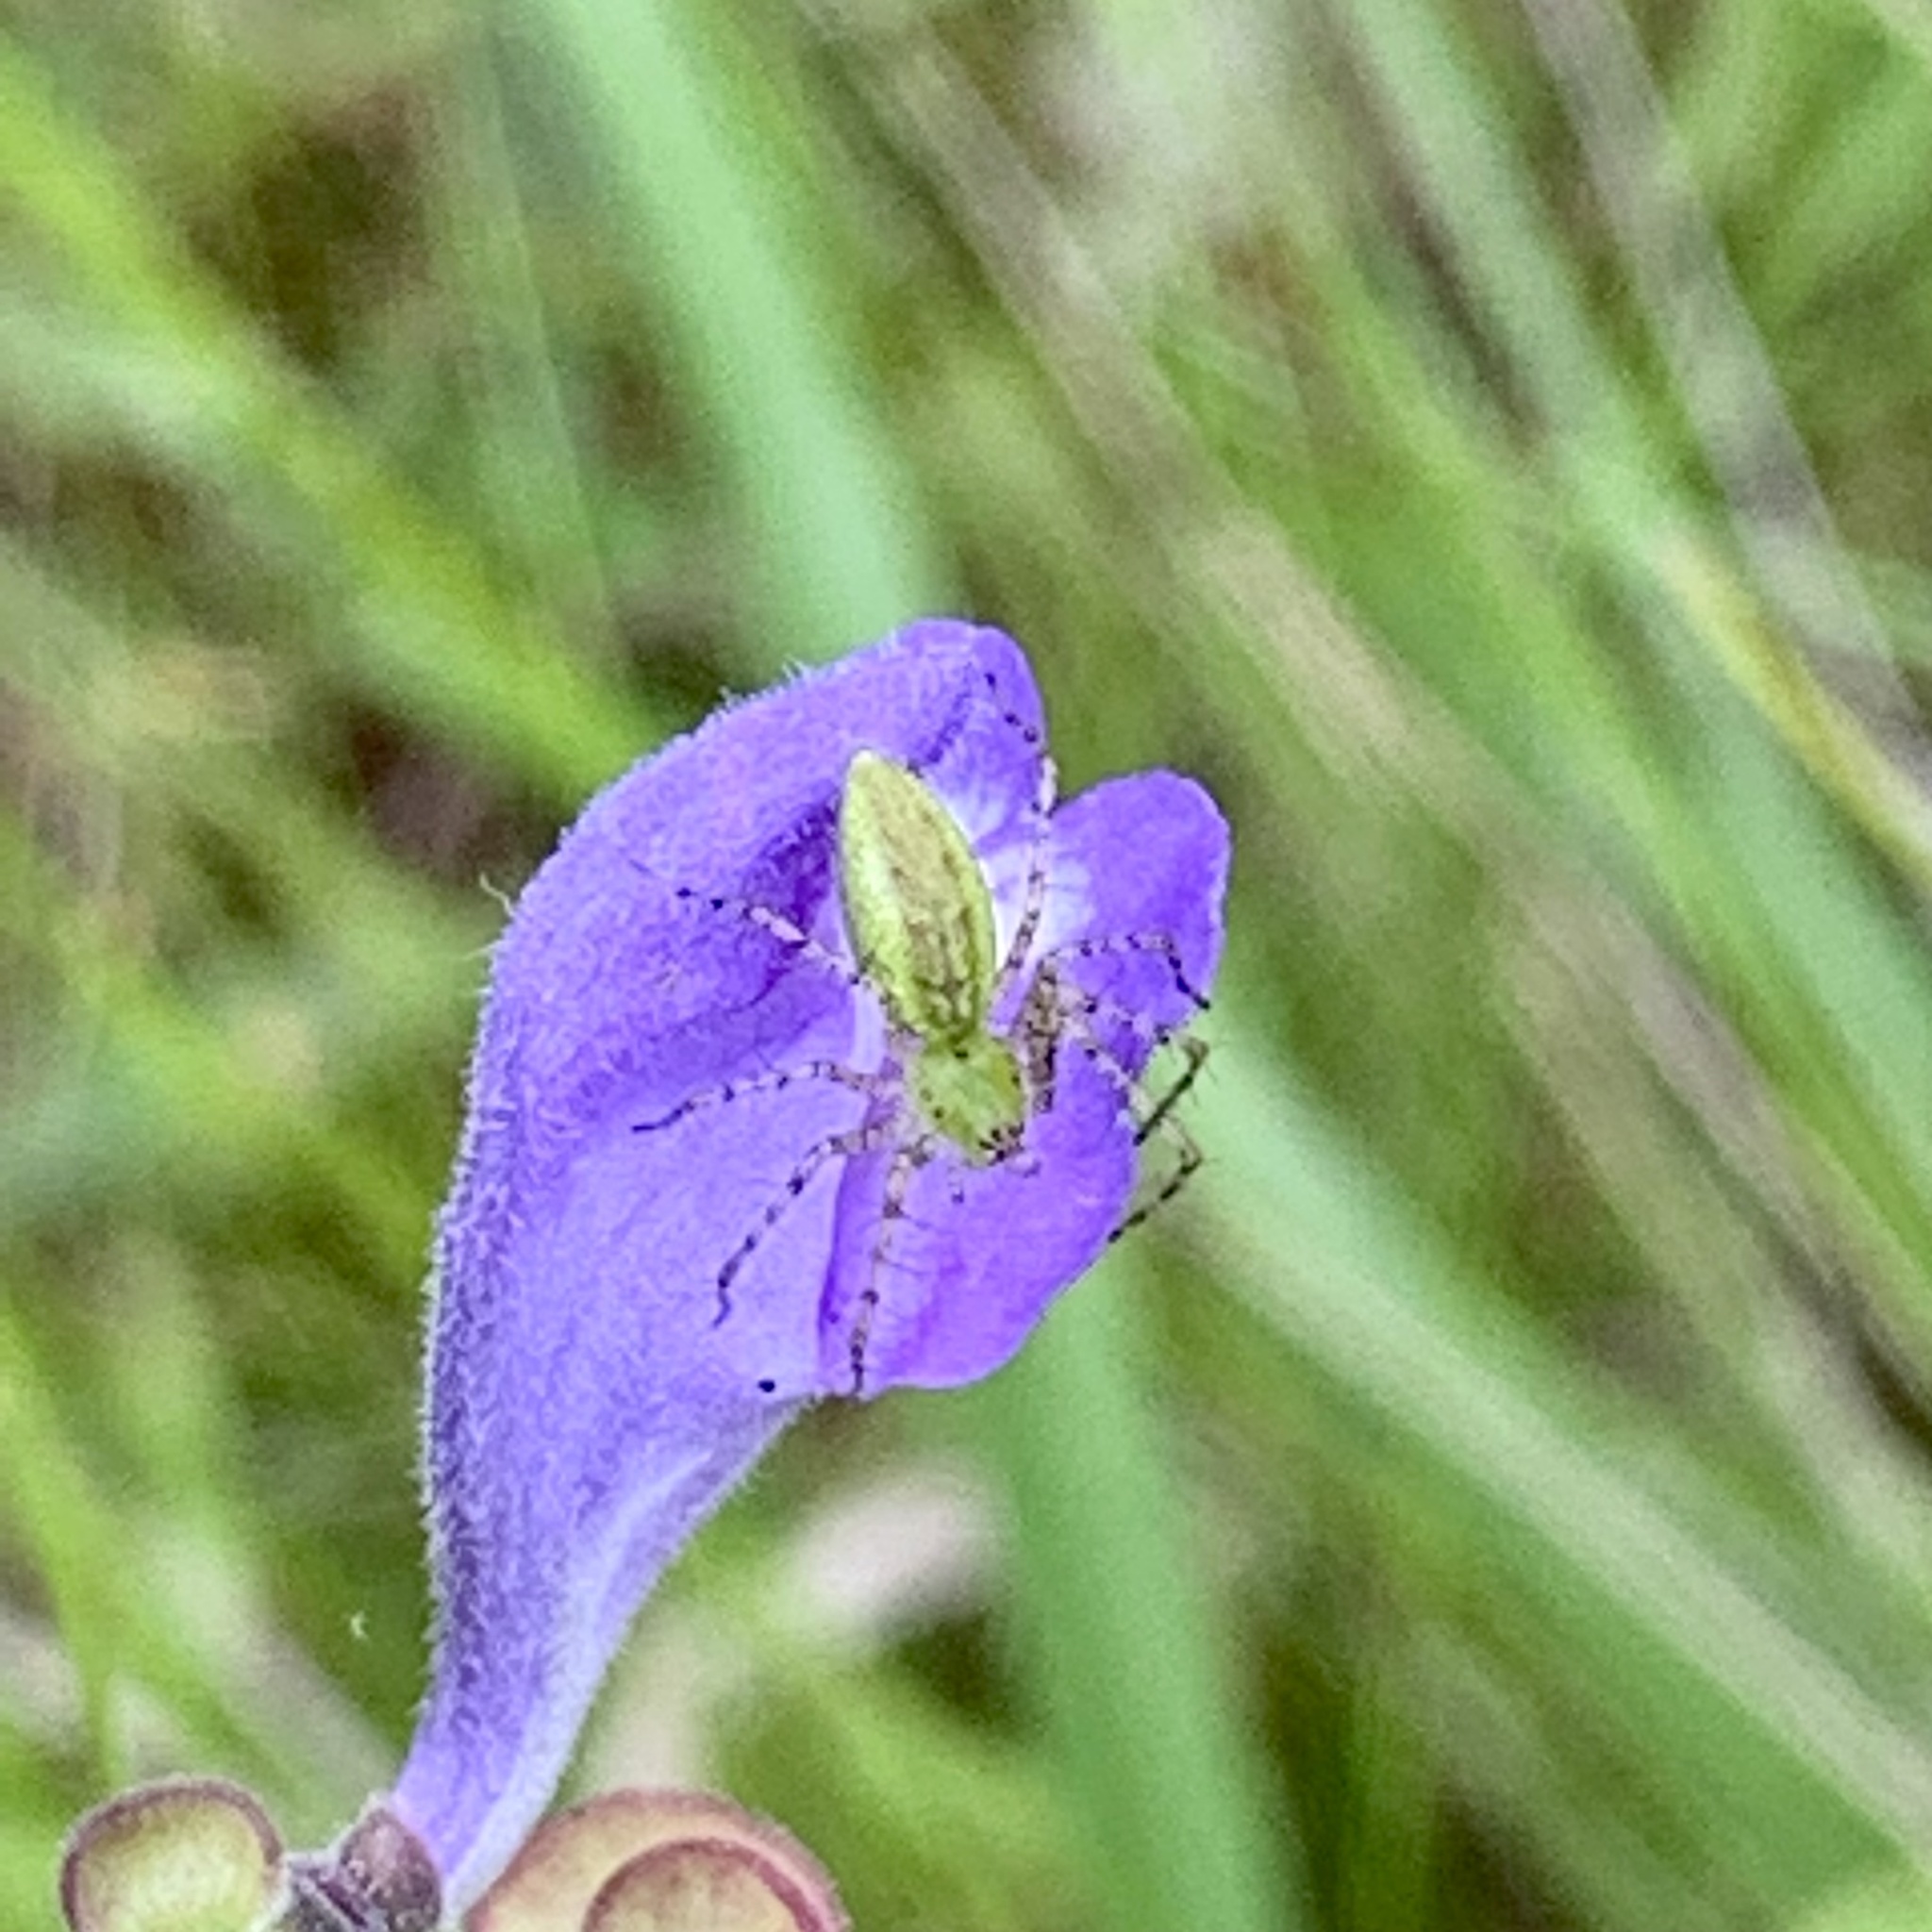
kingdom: Animalia
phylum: Arthropoda
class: Arachnida
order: Araneae
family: Oxyopidae
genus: Peucetia
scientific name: Peucetia viridans
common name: Lynx spiders
